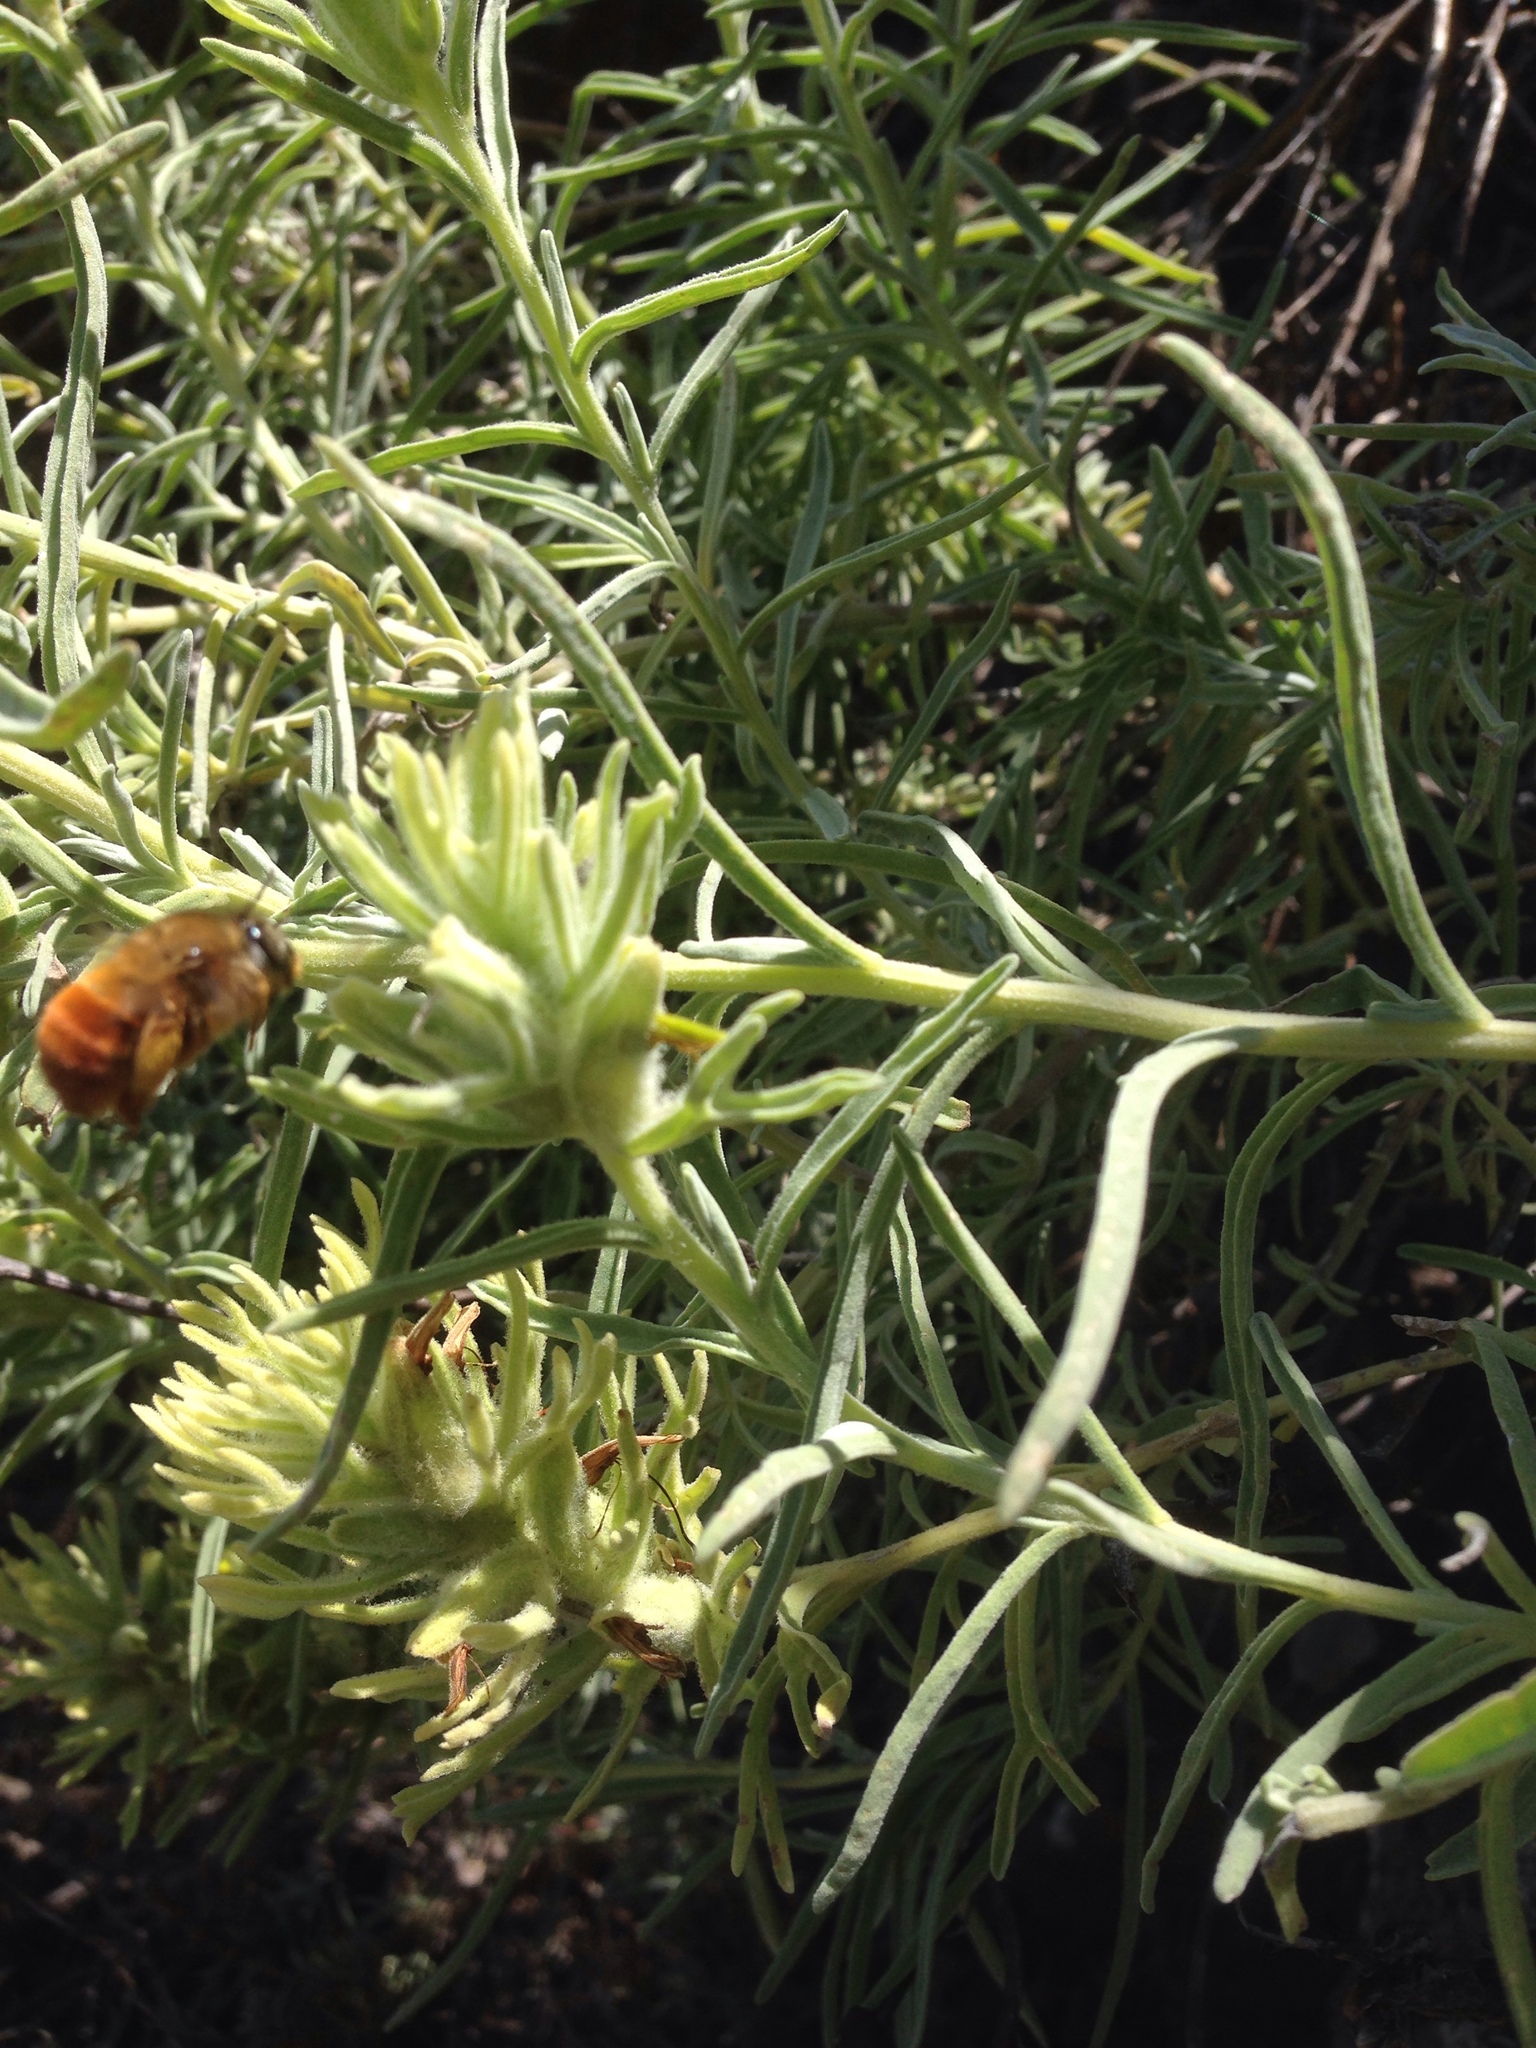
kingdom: Animalia
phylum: Arthropoda
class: Insecta
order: Hymenoptera
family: Apidae
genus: Habropoda
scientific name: Habropoda depressa
